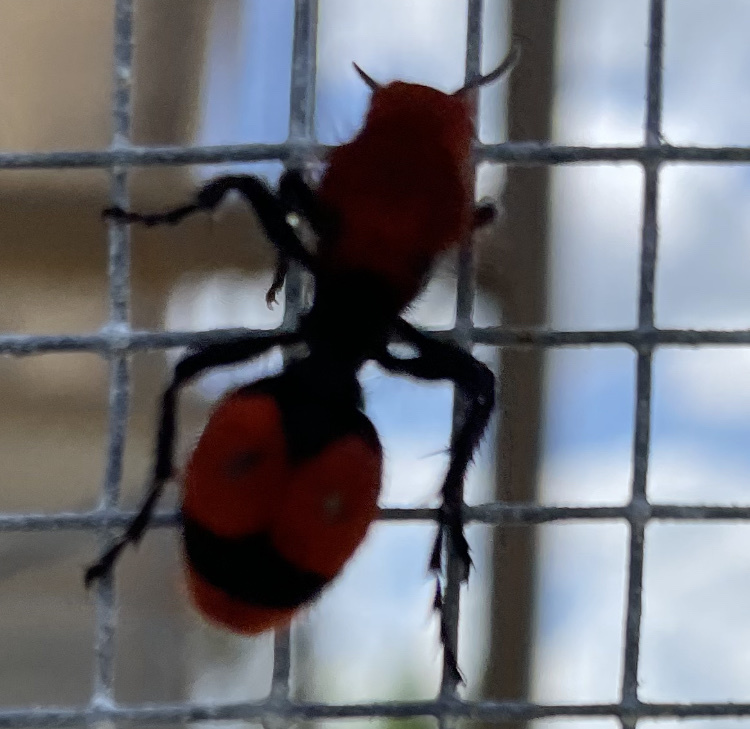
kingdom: Animalia
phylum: Arthropoda
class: Insecta
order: Hymenoptera
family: Mutillidae
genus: Dasymutilla
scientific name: Dasymutilla occidentalis
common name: Common eastern velvet ant
